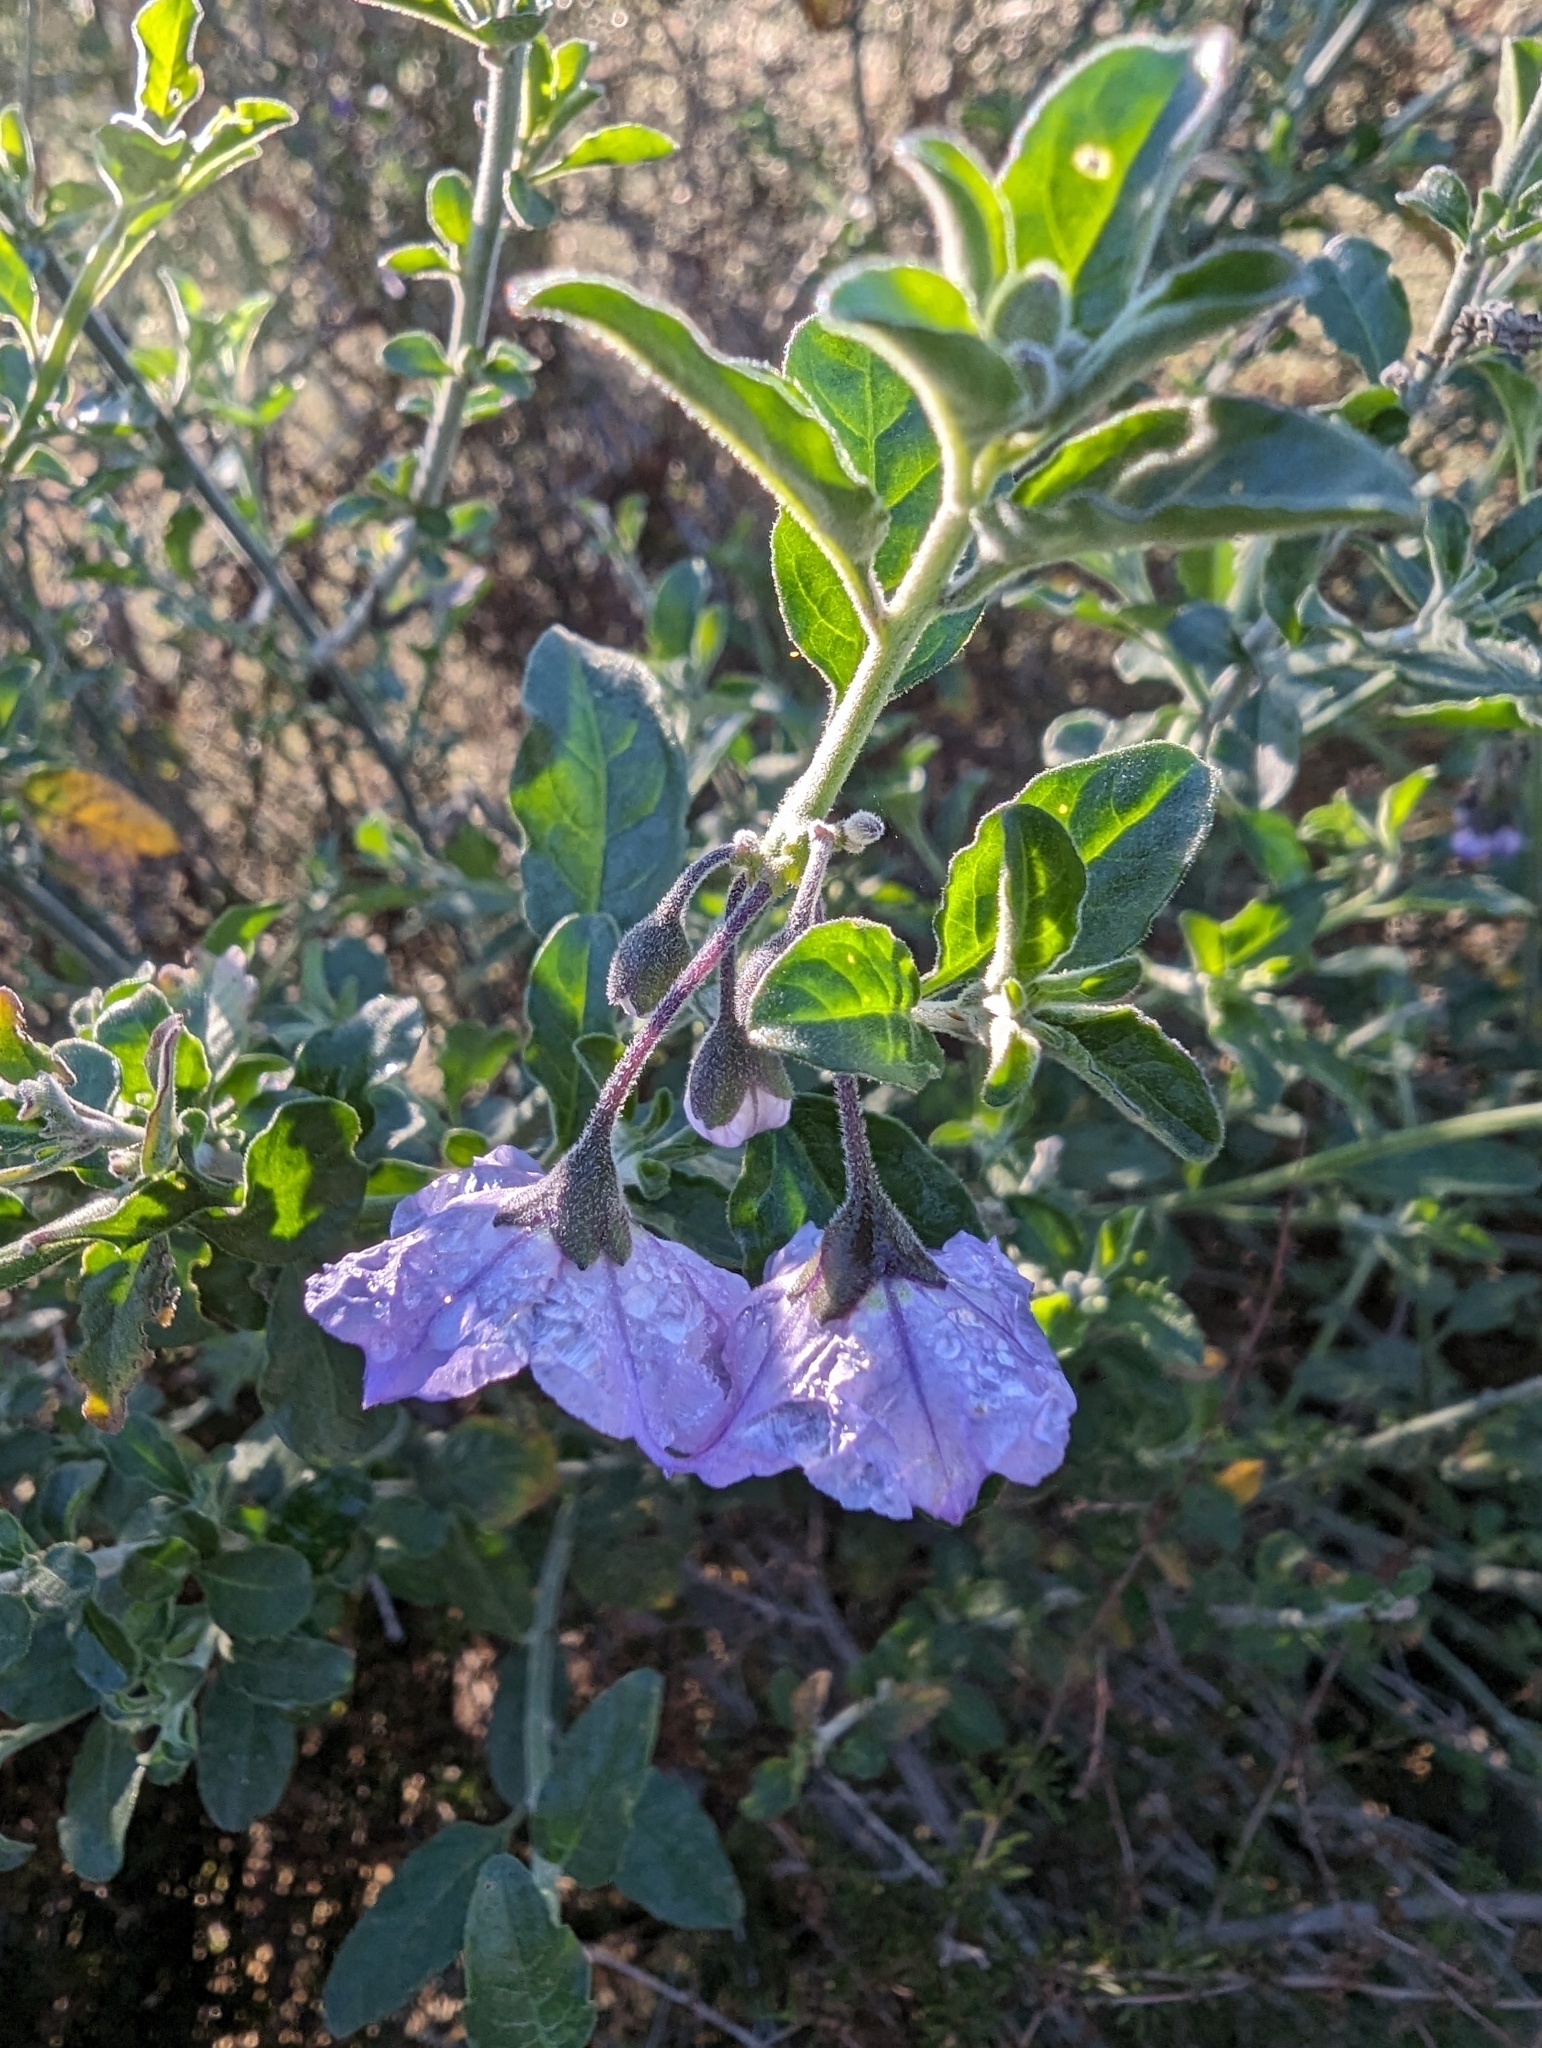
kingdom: Plantae
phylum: Tracheophyta
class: Magnoliopsida
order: Solanales
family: Solanaceae
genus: Solanum
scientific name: Solanum umbelliferum
